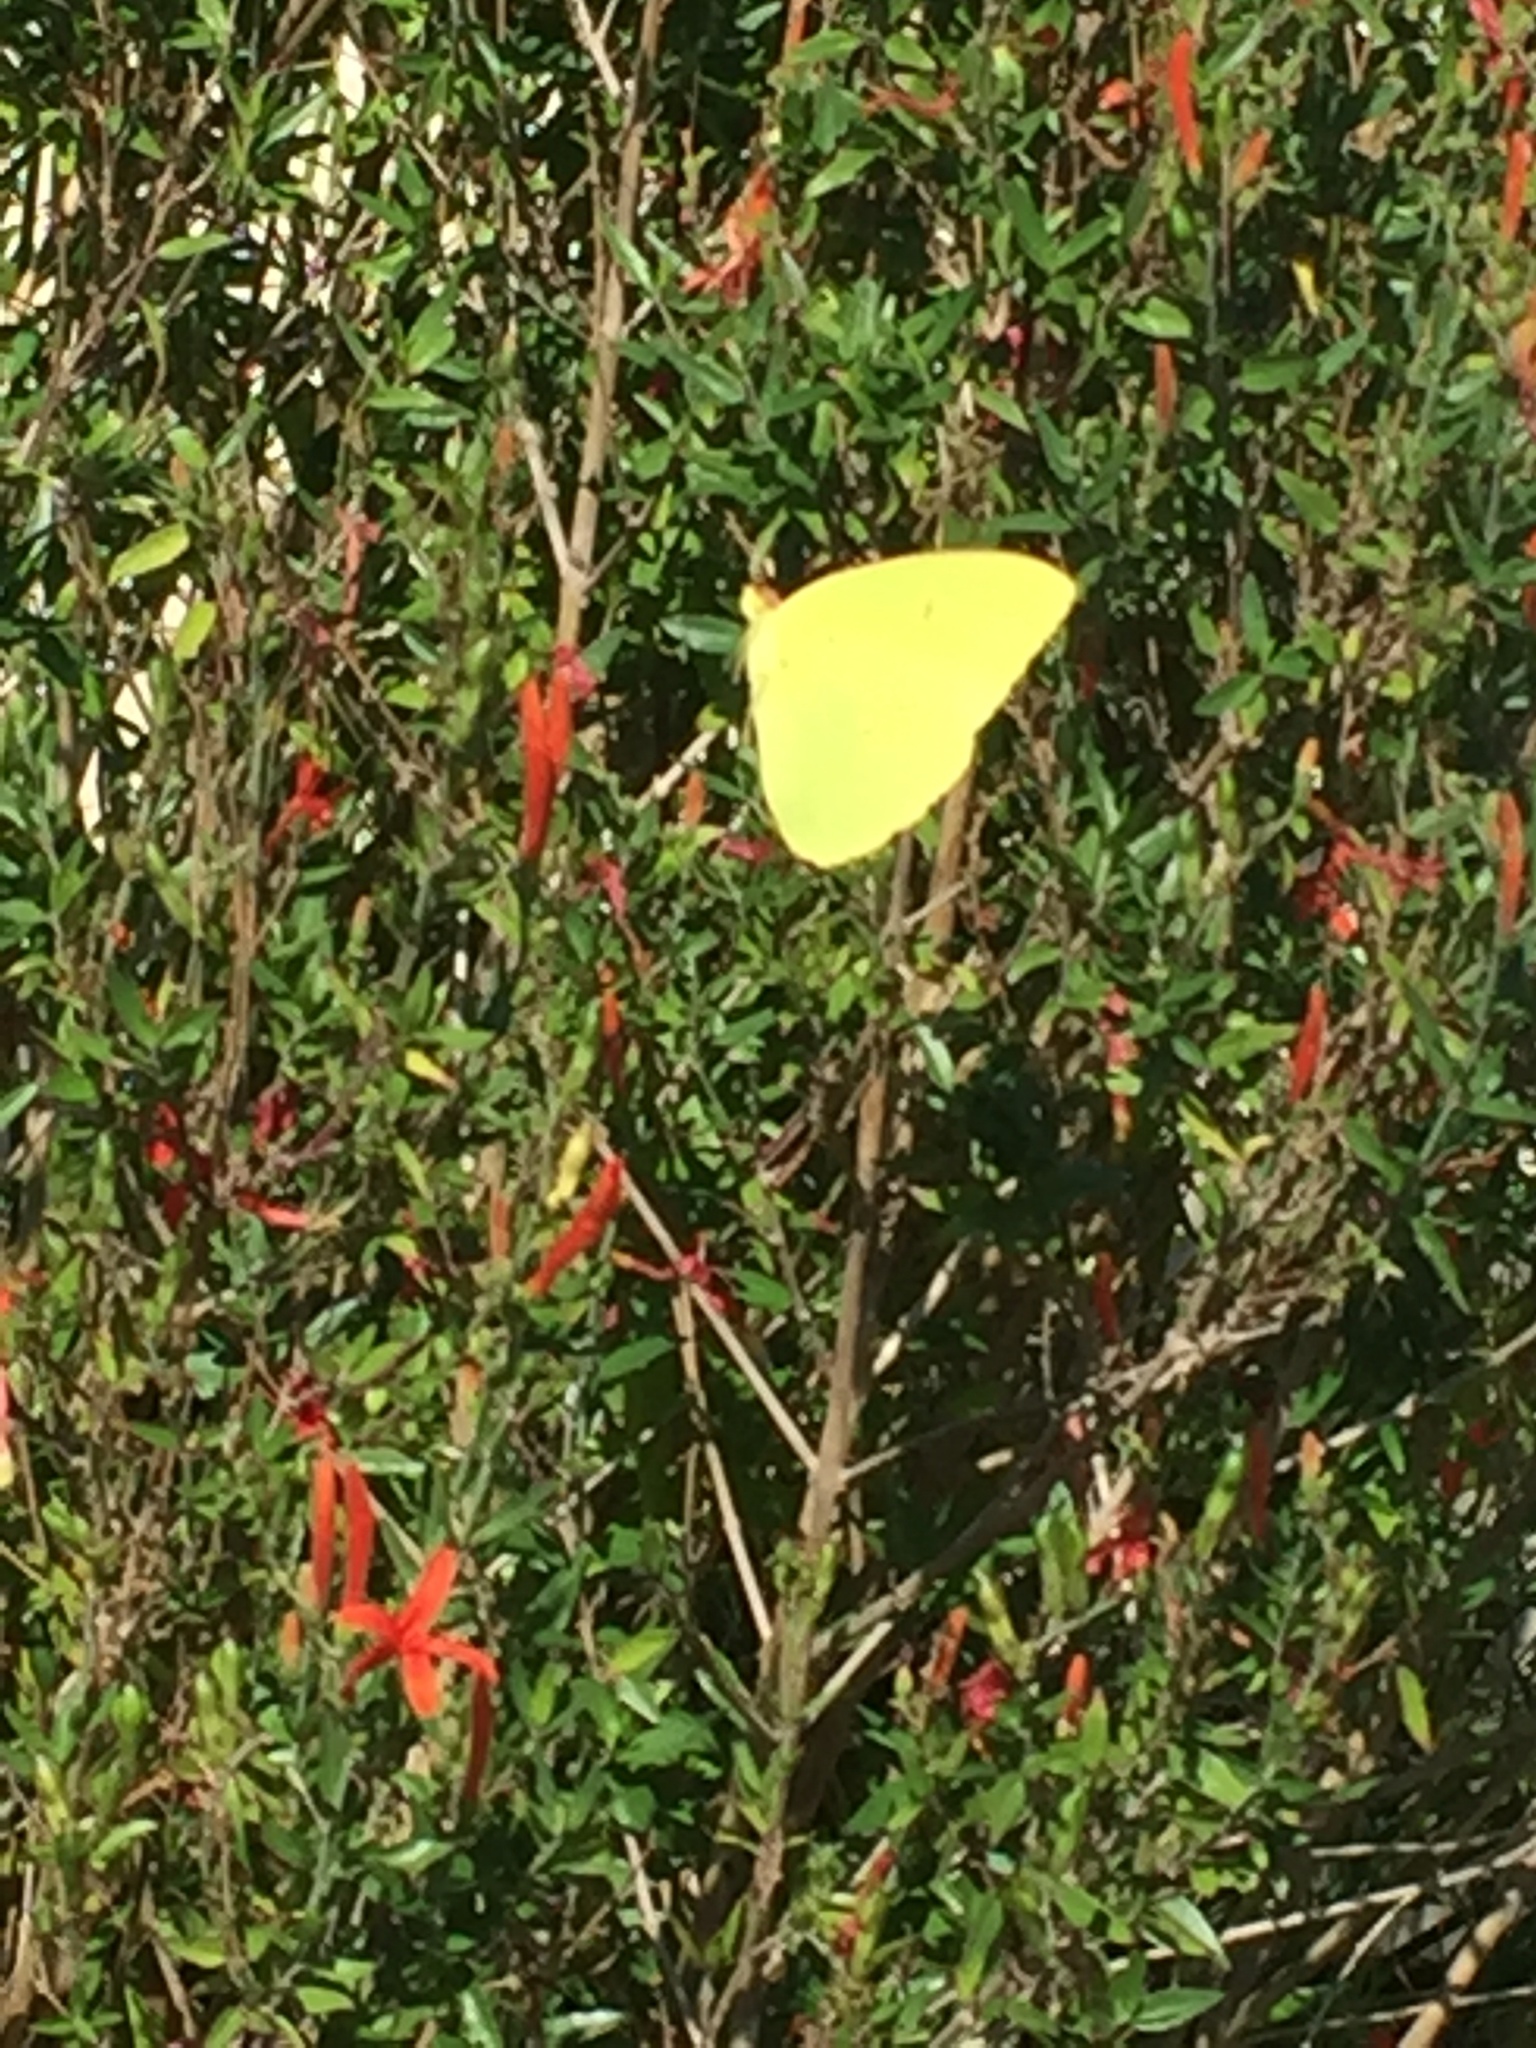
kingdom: Animalia
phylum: Arthropoda
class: Insecta
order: Lepidoptera
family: Pieridae
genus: Phoebis
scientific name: Phoebis sennae
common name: Cloudless sulphur
